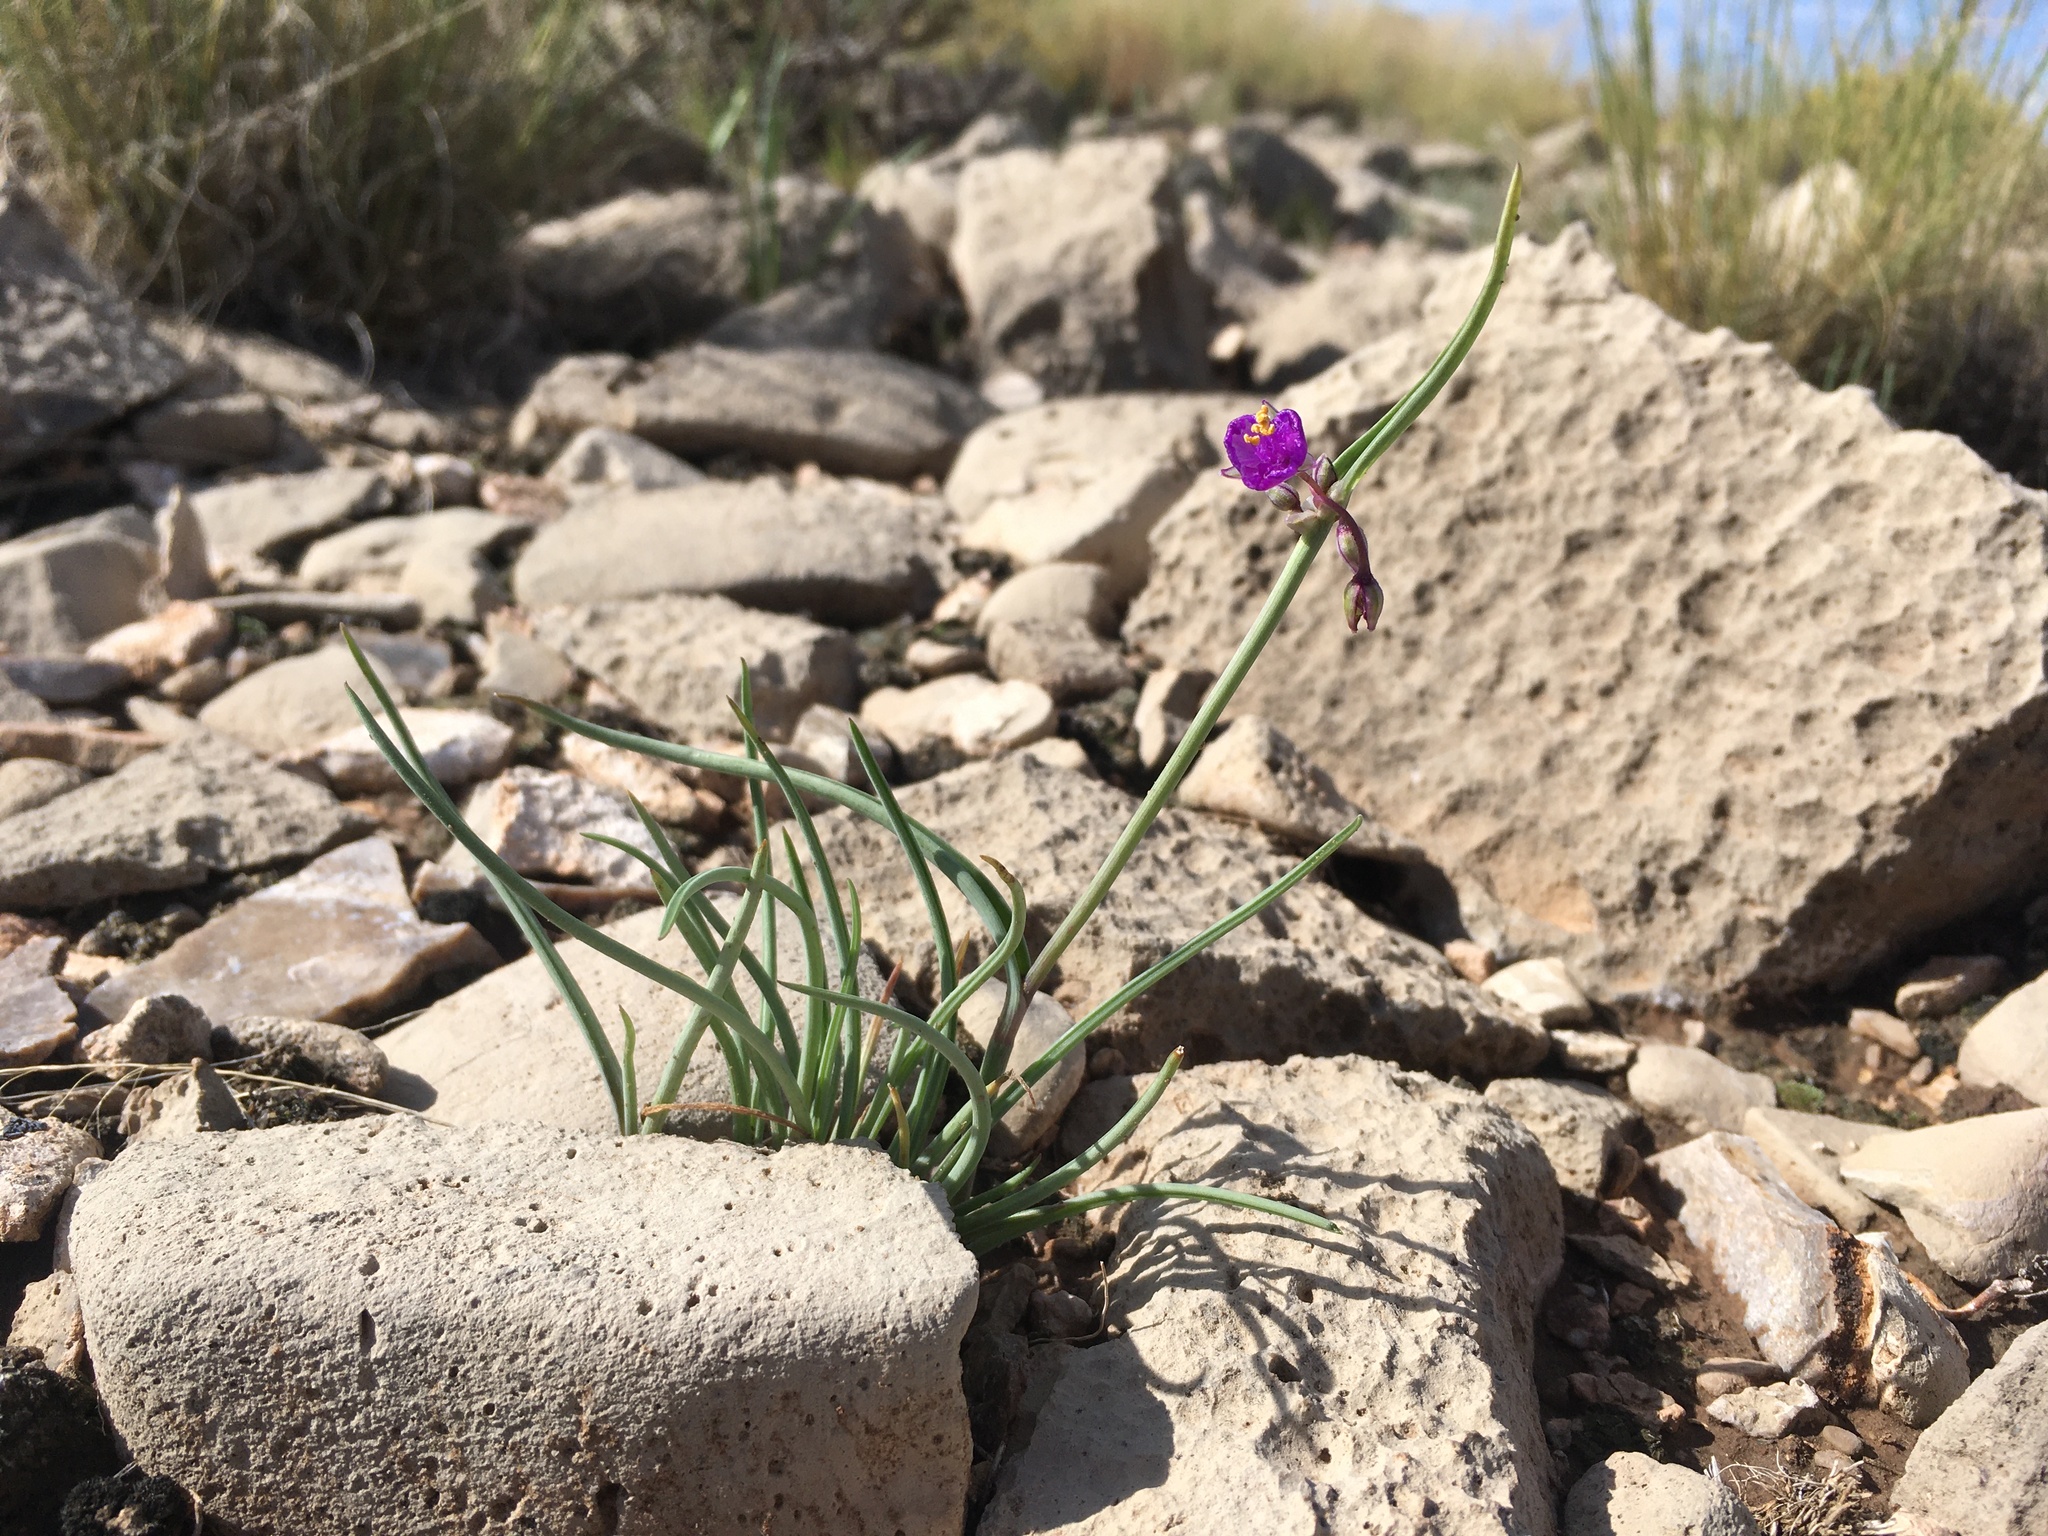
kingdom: Plantae
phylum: Tracheophyta
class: Liliopsida
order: Commelinales
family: Commelinaceae
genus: Tradescantia
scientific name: Tradescantia wrightii
